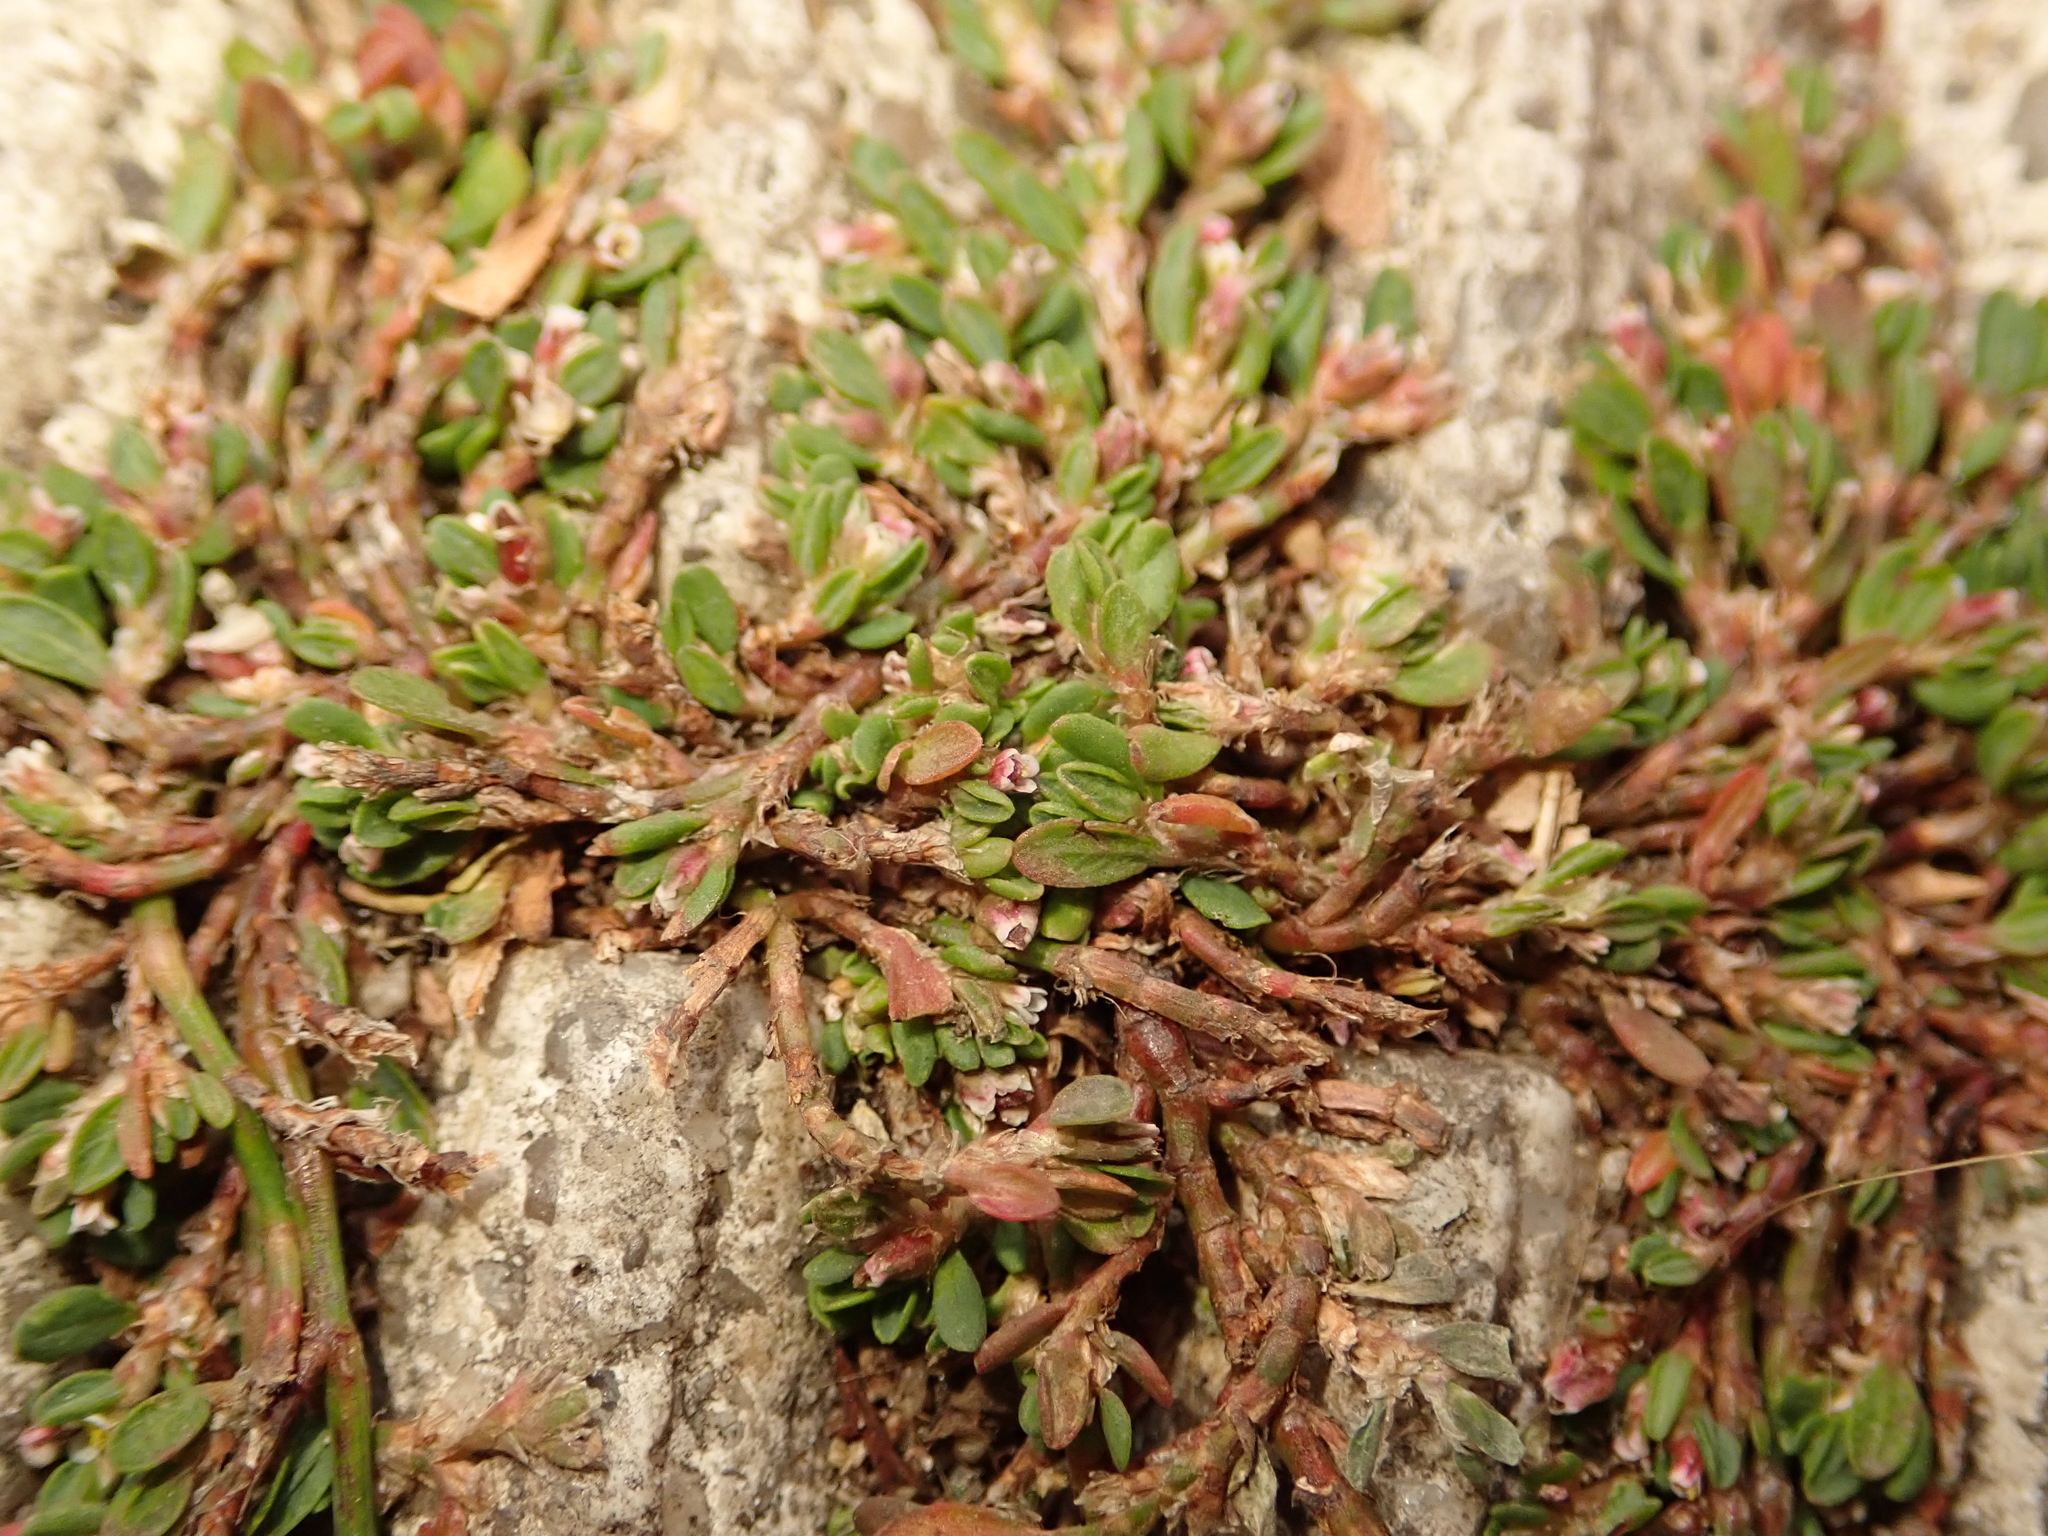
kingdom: Plantae
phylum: Tracheophyta
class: Magnoliopsida
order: Caryophyllales
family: Polygonaceae
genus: Polygonum
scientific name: Polygonum arenastrum
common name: Equal-leaved knotgrass
